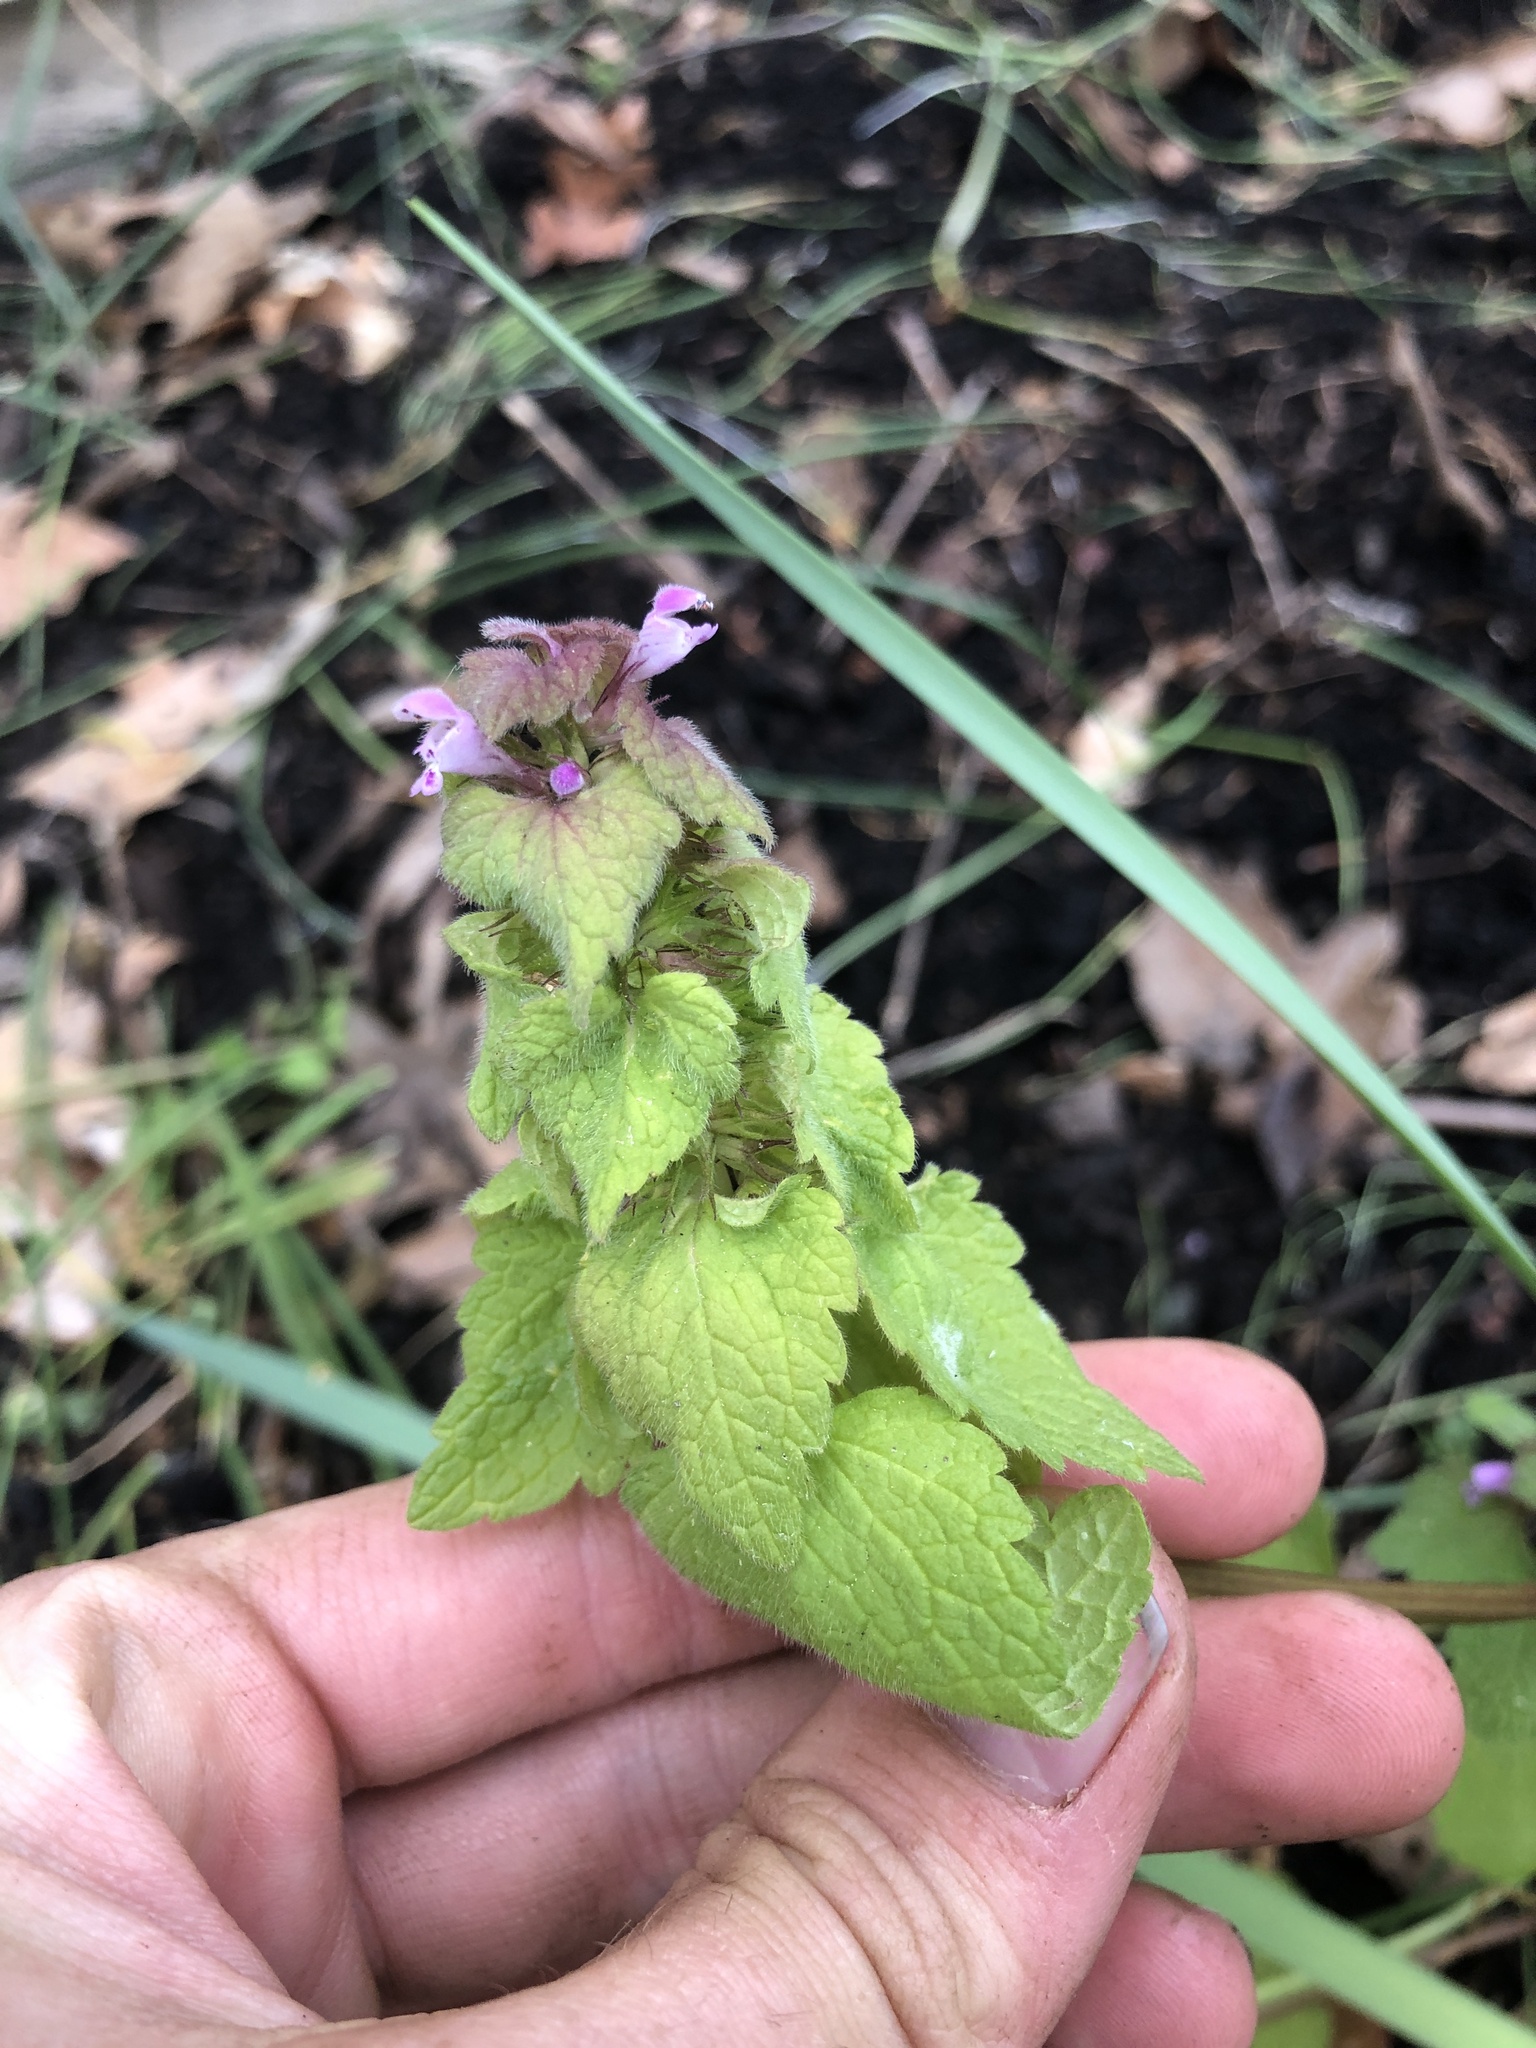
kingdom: Plantae
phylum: Tracheophyta
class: Magnoliopsida
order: Lamiales
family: Lamiaceae
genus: Lamium
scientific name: Lamium purpureum
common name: Red dead-nettle
